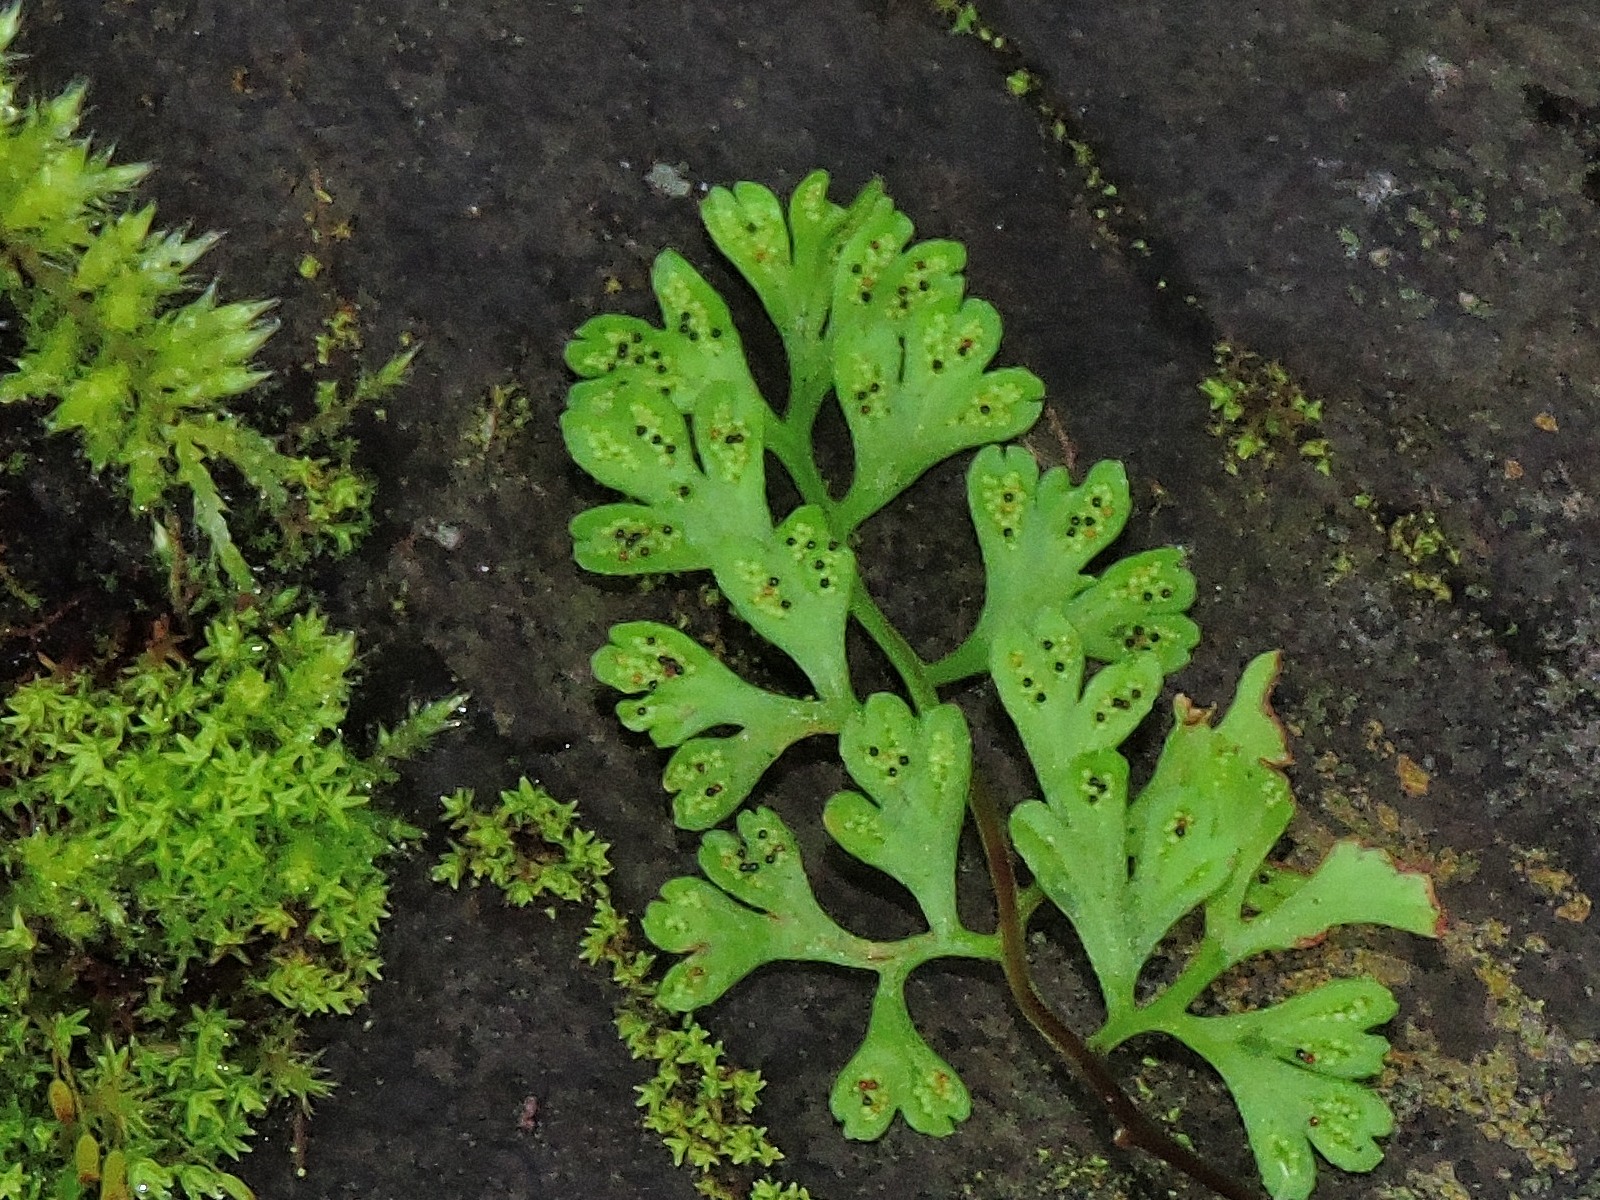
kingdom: Plantae
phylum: Tracheophyta
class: Polypodiopsida
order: Polypodiales
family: Pteridaceae
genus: Anogramma
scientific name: Anogramma leptophylla
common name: Jersey fern
